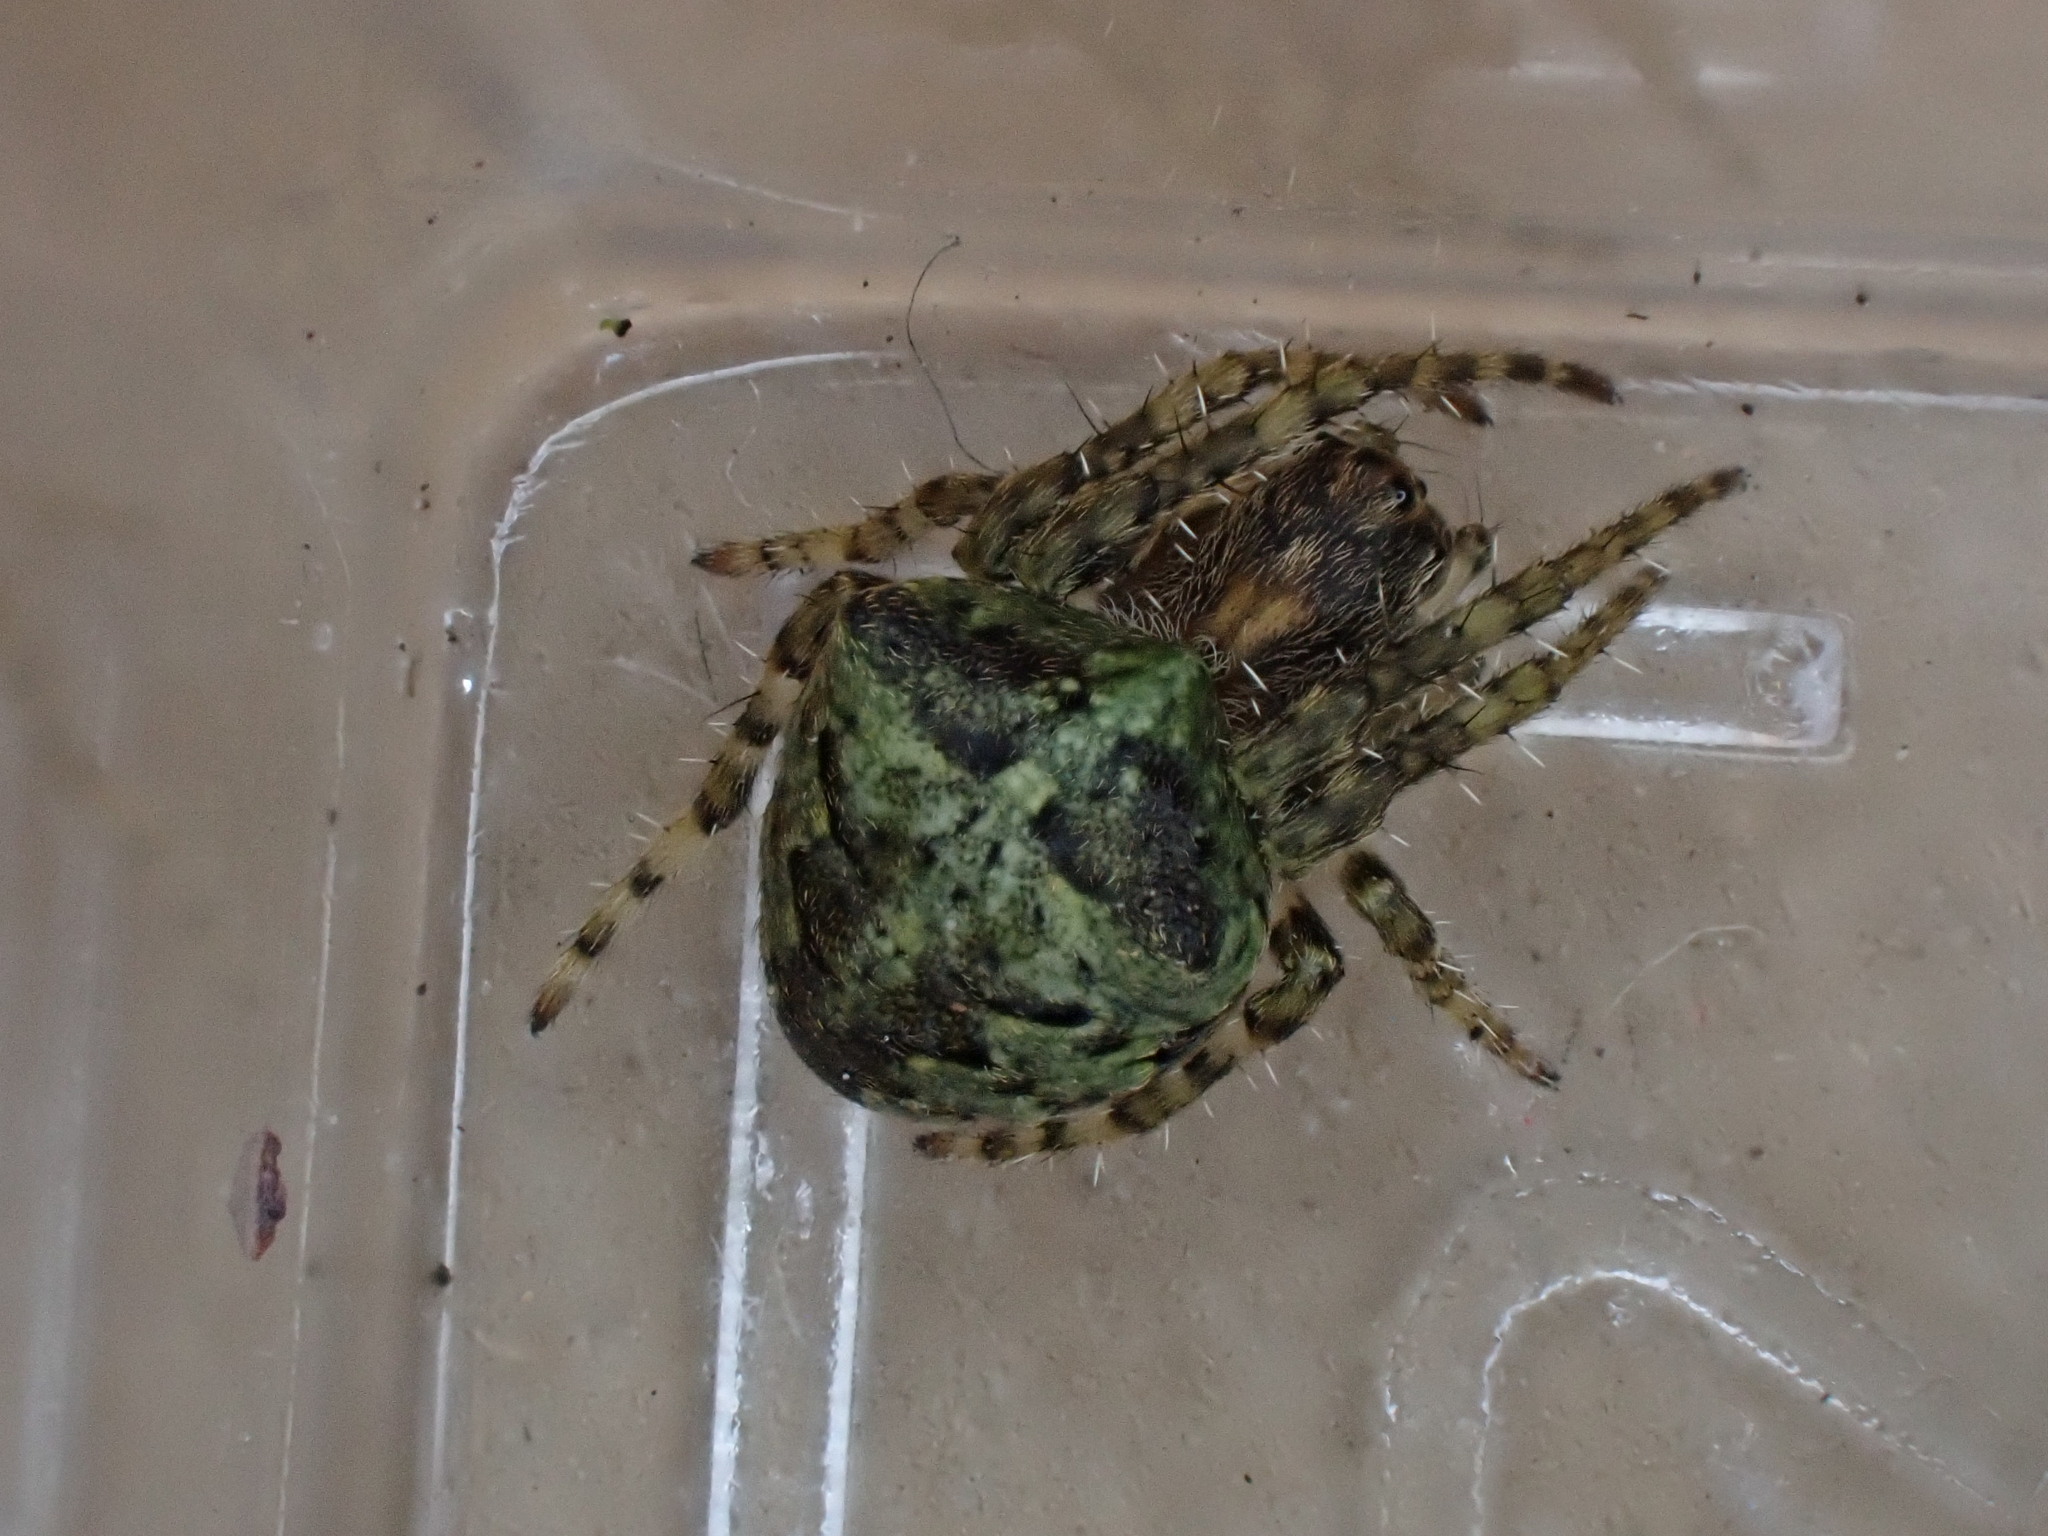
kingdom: Animalia
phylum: Arthropoda
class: Arachnida
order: Araneae
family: Araneidae
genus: Gibbaranea
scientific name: Gibbaranea gibbosa
